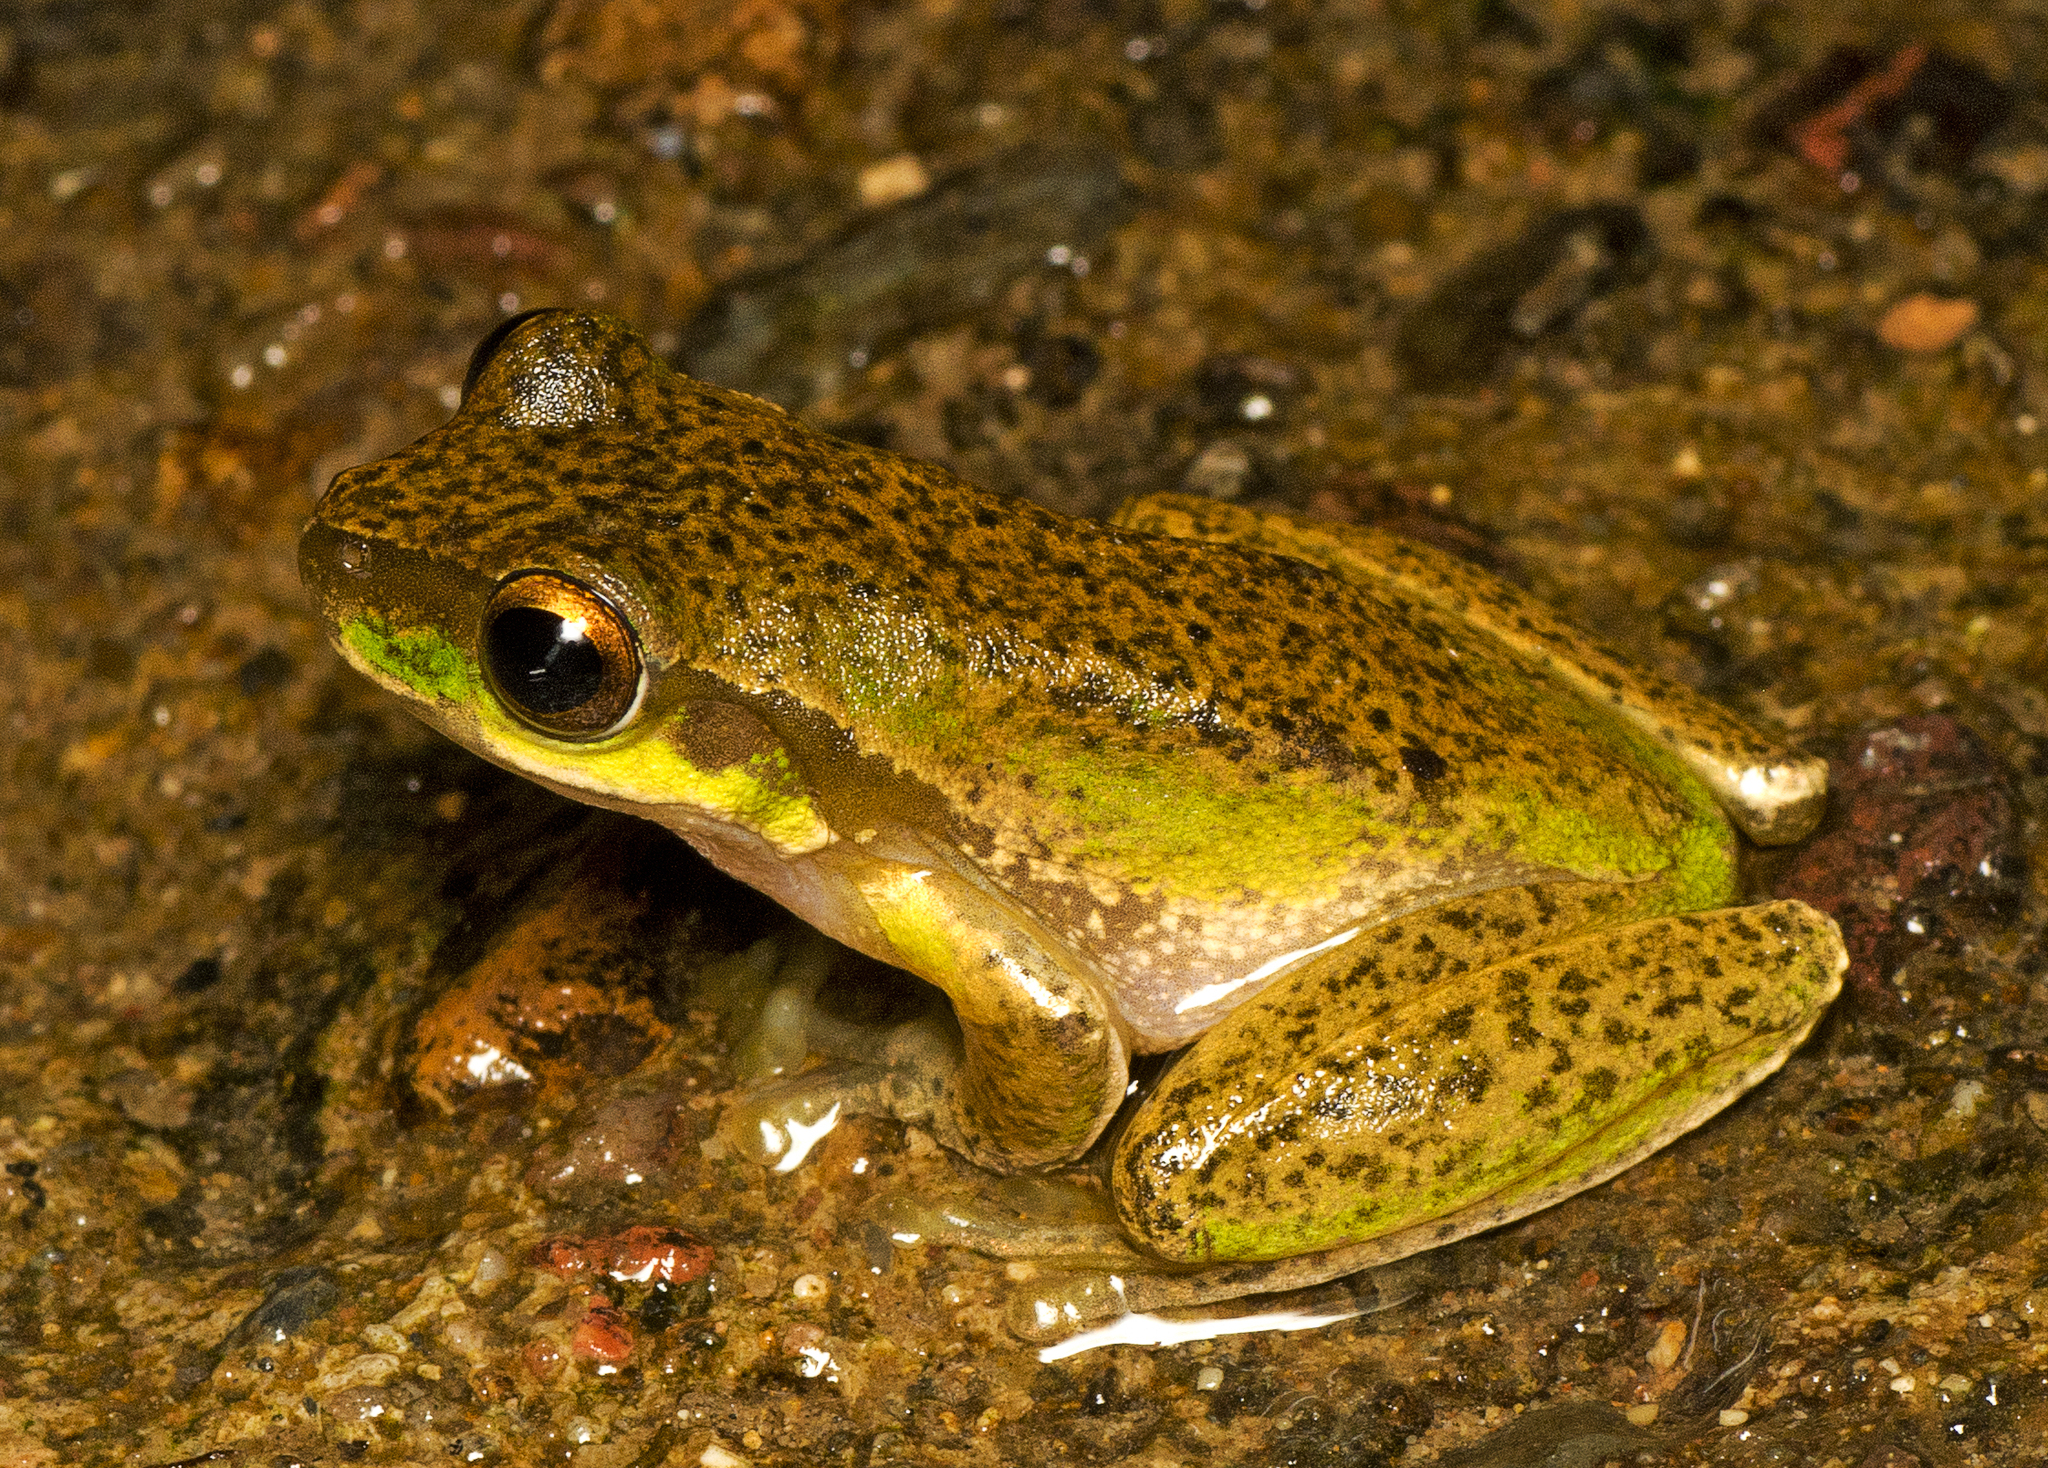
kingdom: Animalia
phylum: Chordata
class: Amphibia
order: Anura
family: Pelodryadidae
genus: Ranoidea
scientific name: Ranoidea pearsoniana
